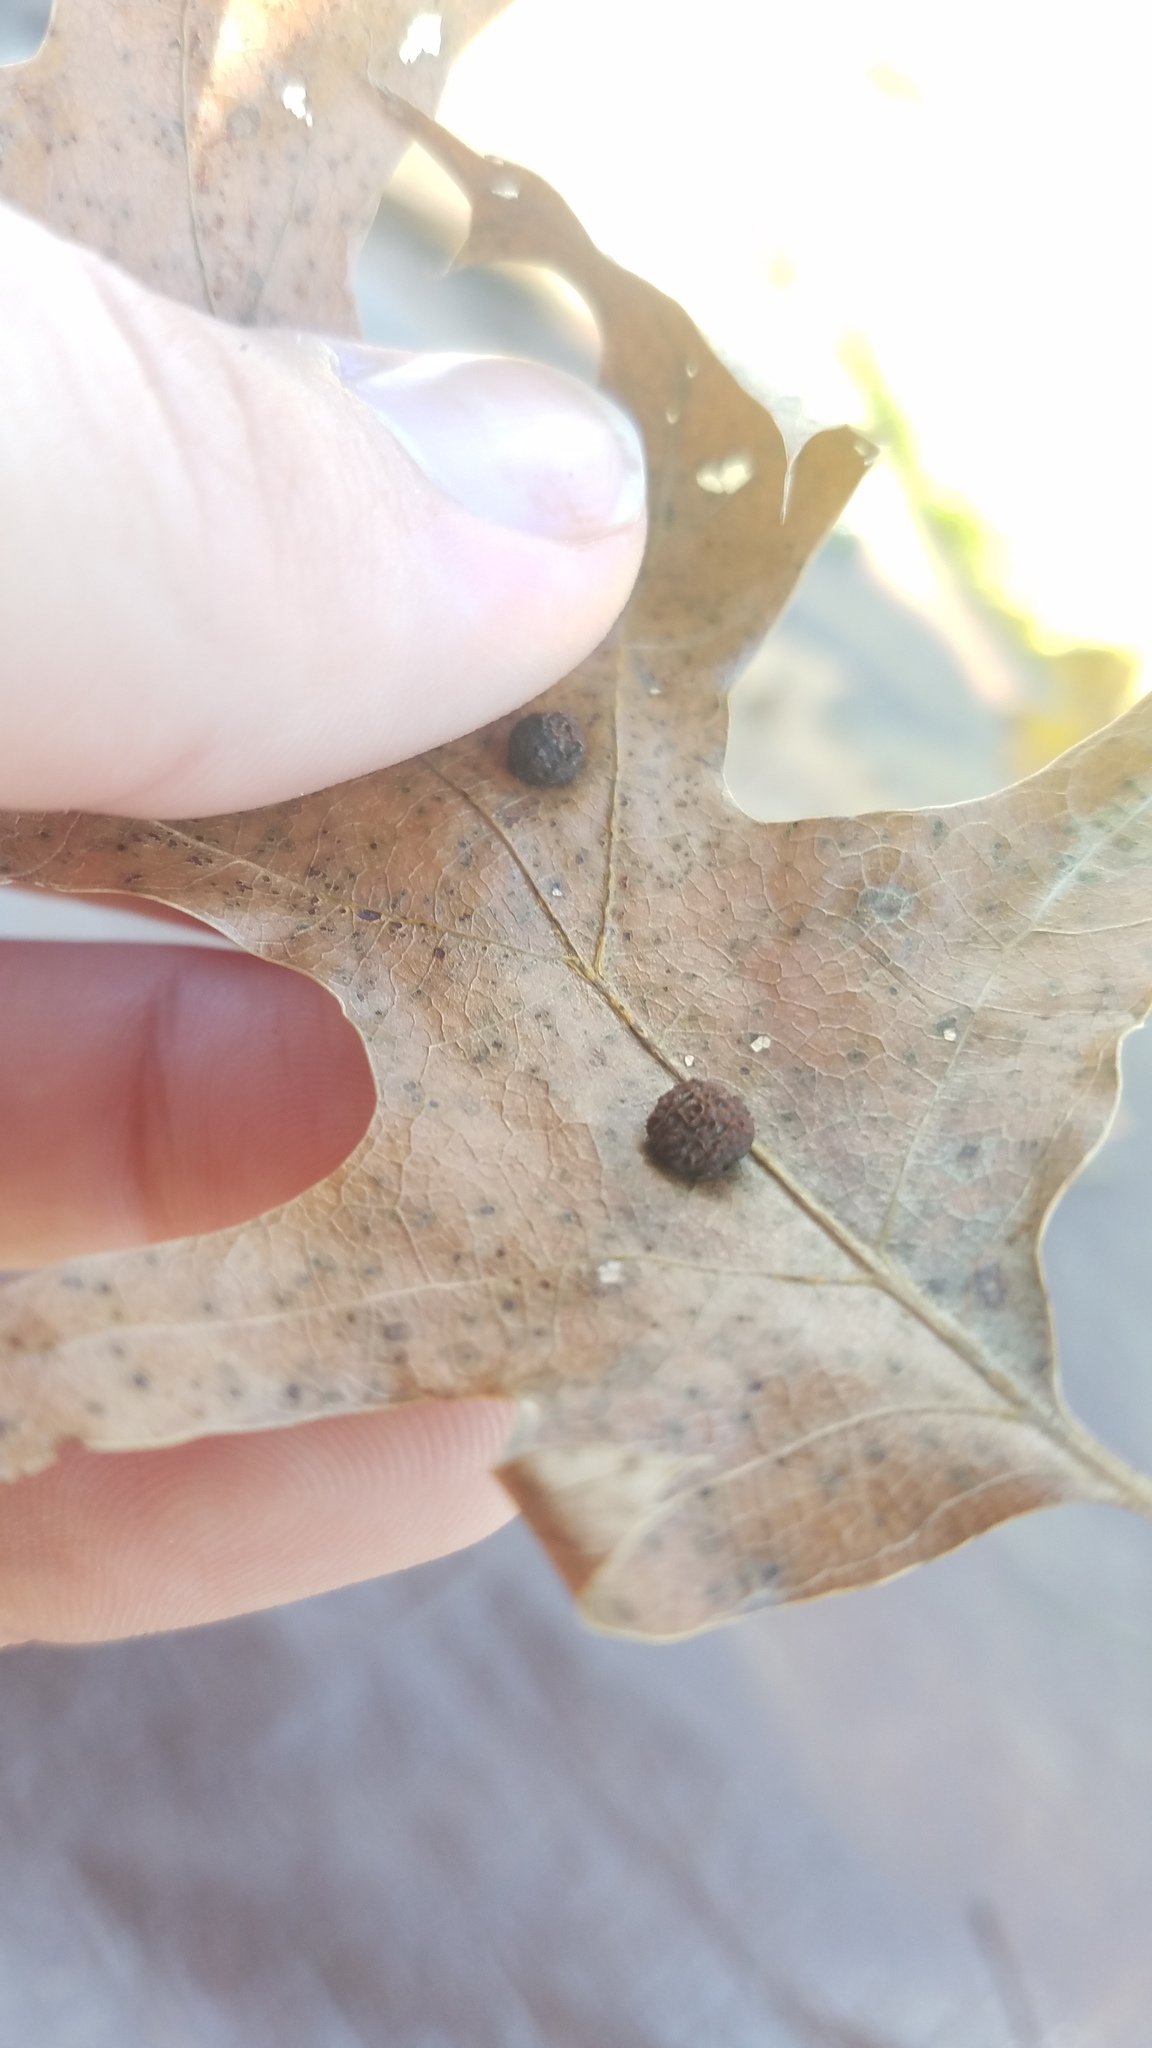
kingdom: Animalia
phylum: Arthropoda
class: Insecta
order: Diptera
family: Cecidomyiidae
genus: Polystepha
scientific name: Polystepha pilulae
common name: Oak leaf gall midge
